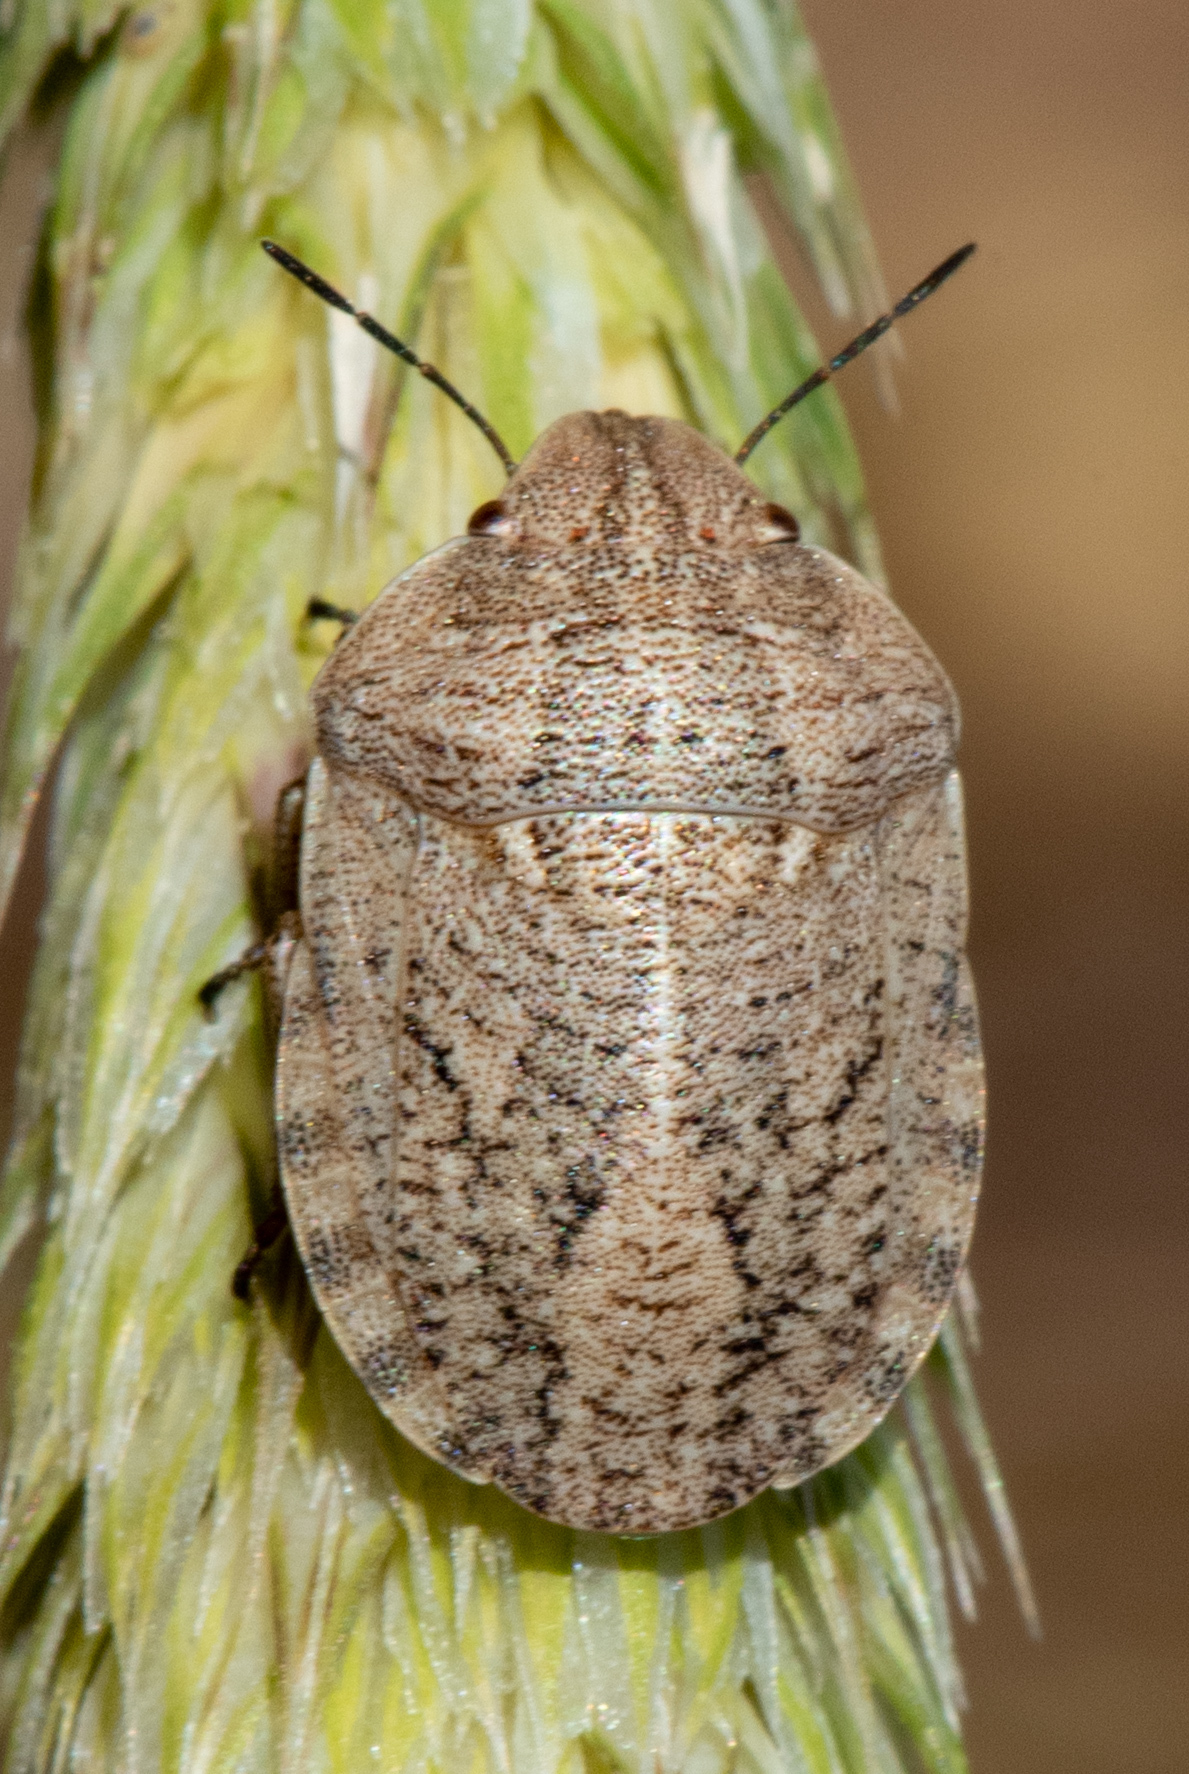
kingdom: Animalia
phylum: Arthropoda
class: Insecta
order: Hemiptera
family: Scutelleridae
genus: Eurygaster
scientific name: Eurygaster
